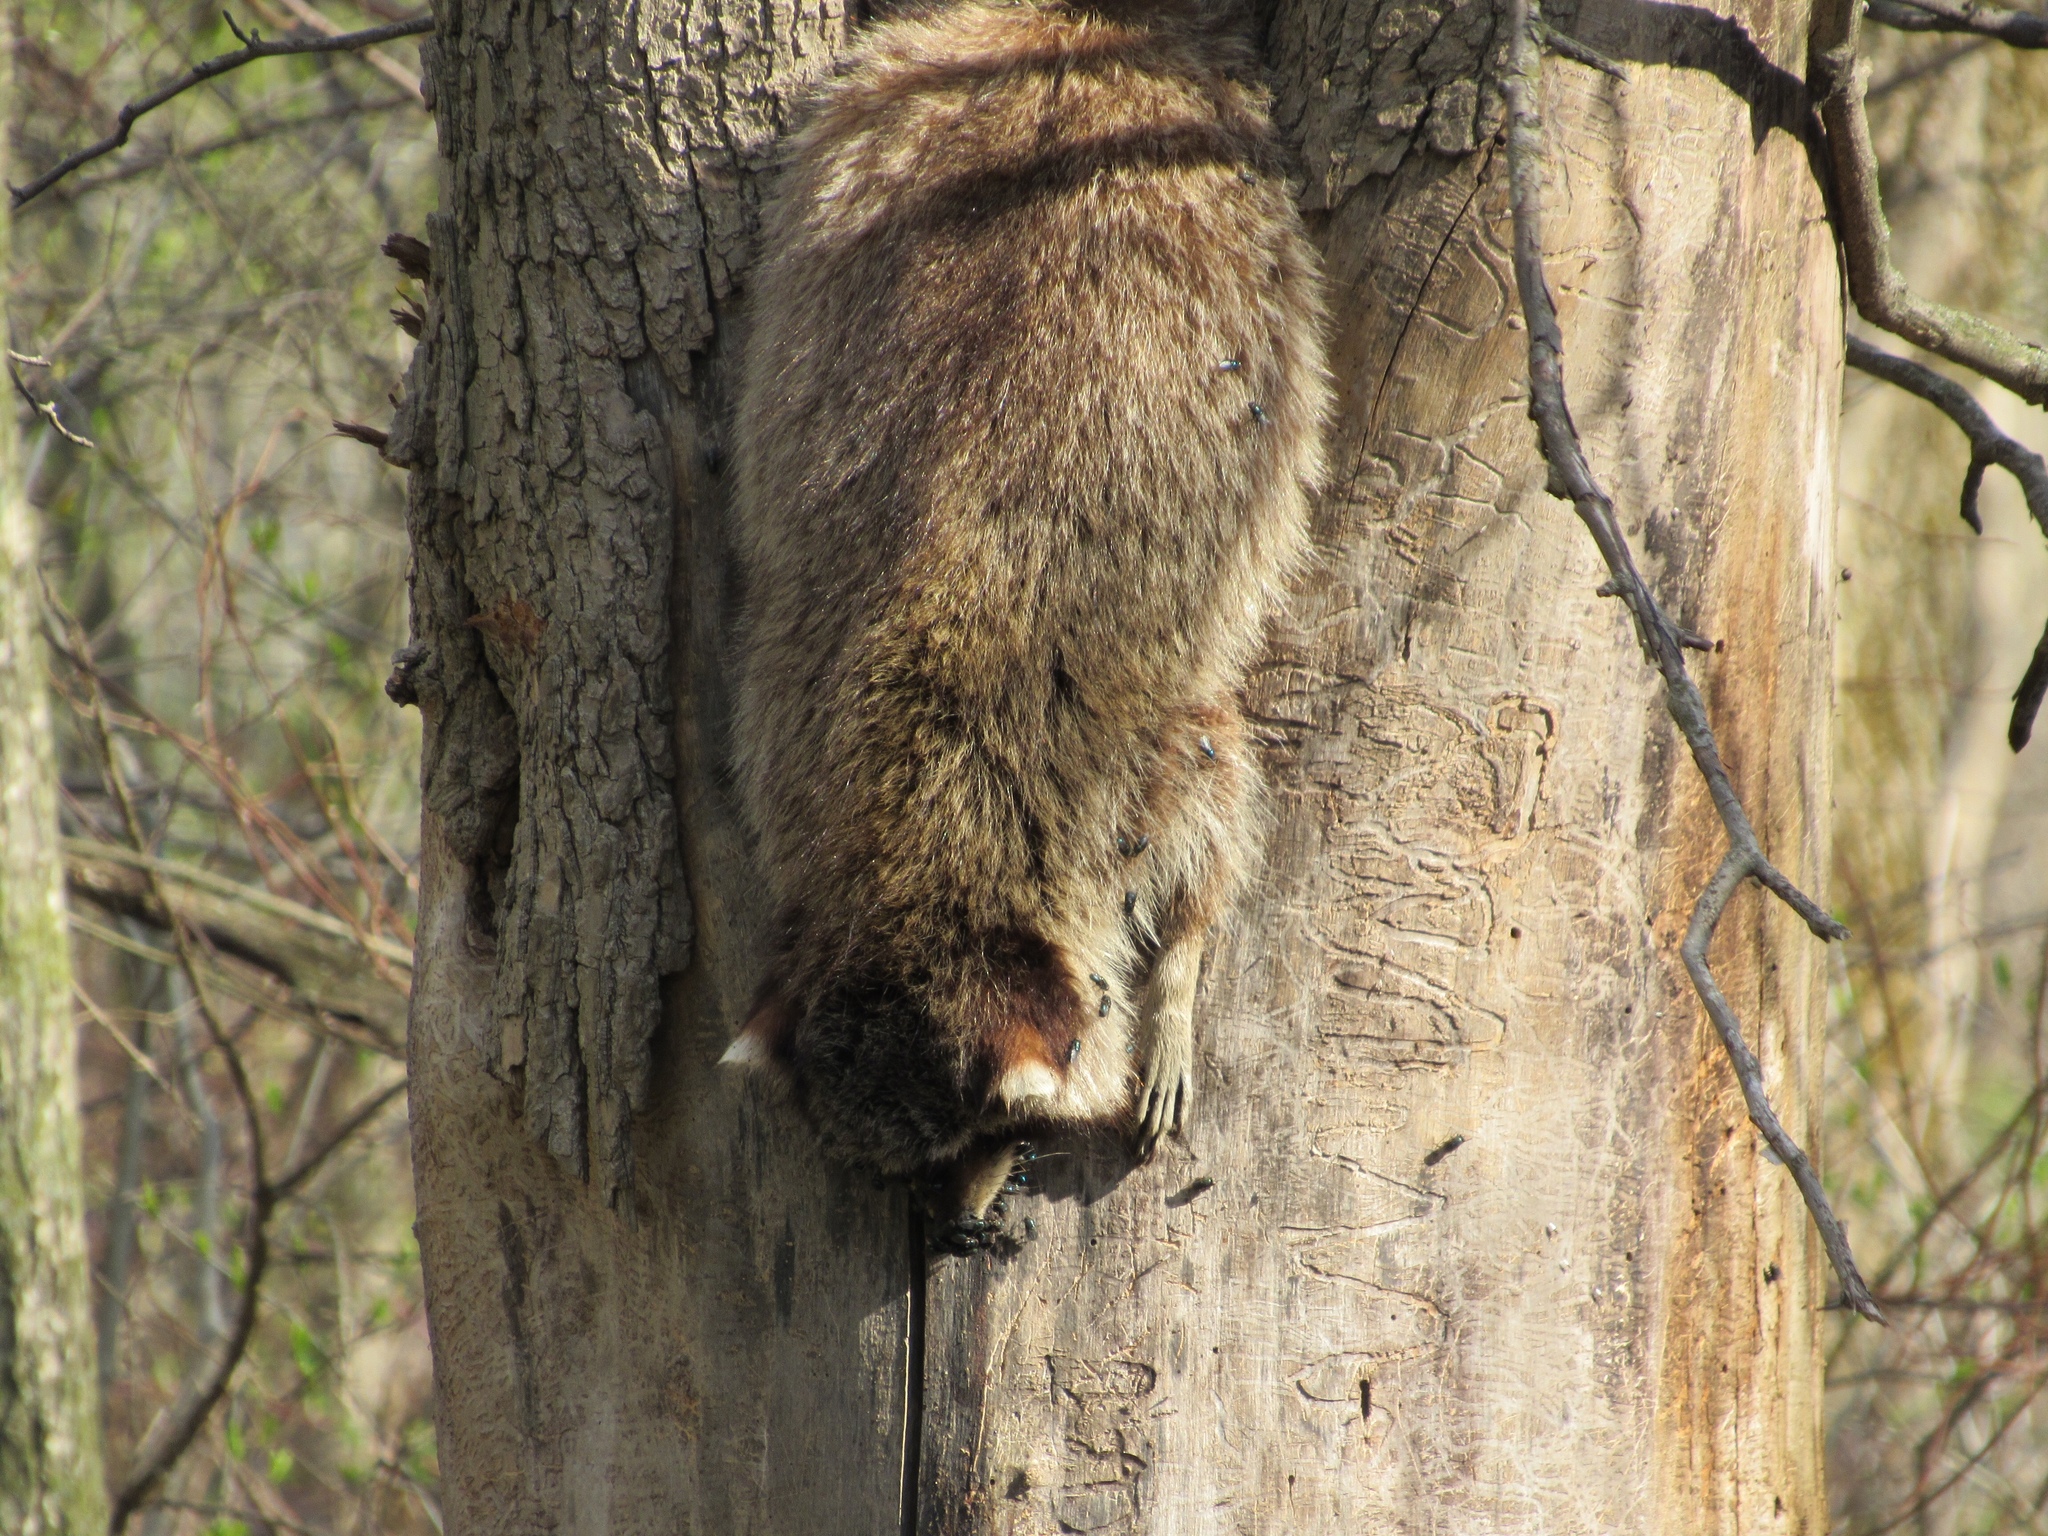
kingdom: Animalia
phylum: Chordata
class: Mammalia
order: Carnivora
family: Procyonidae
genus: Procyon
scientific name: Procyon lotor
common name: Raccoon
